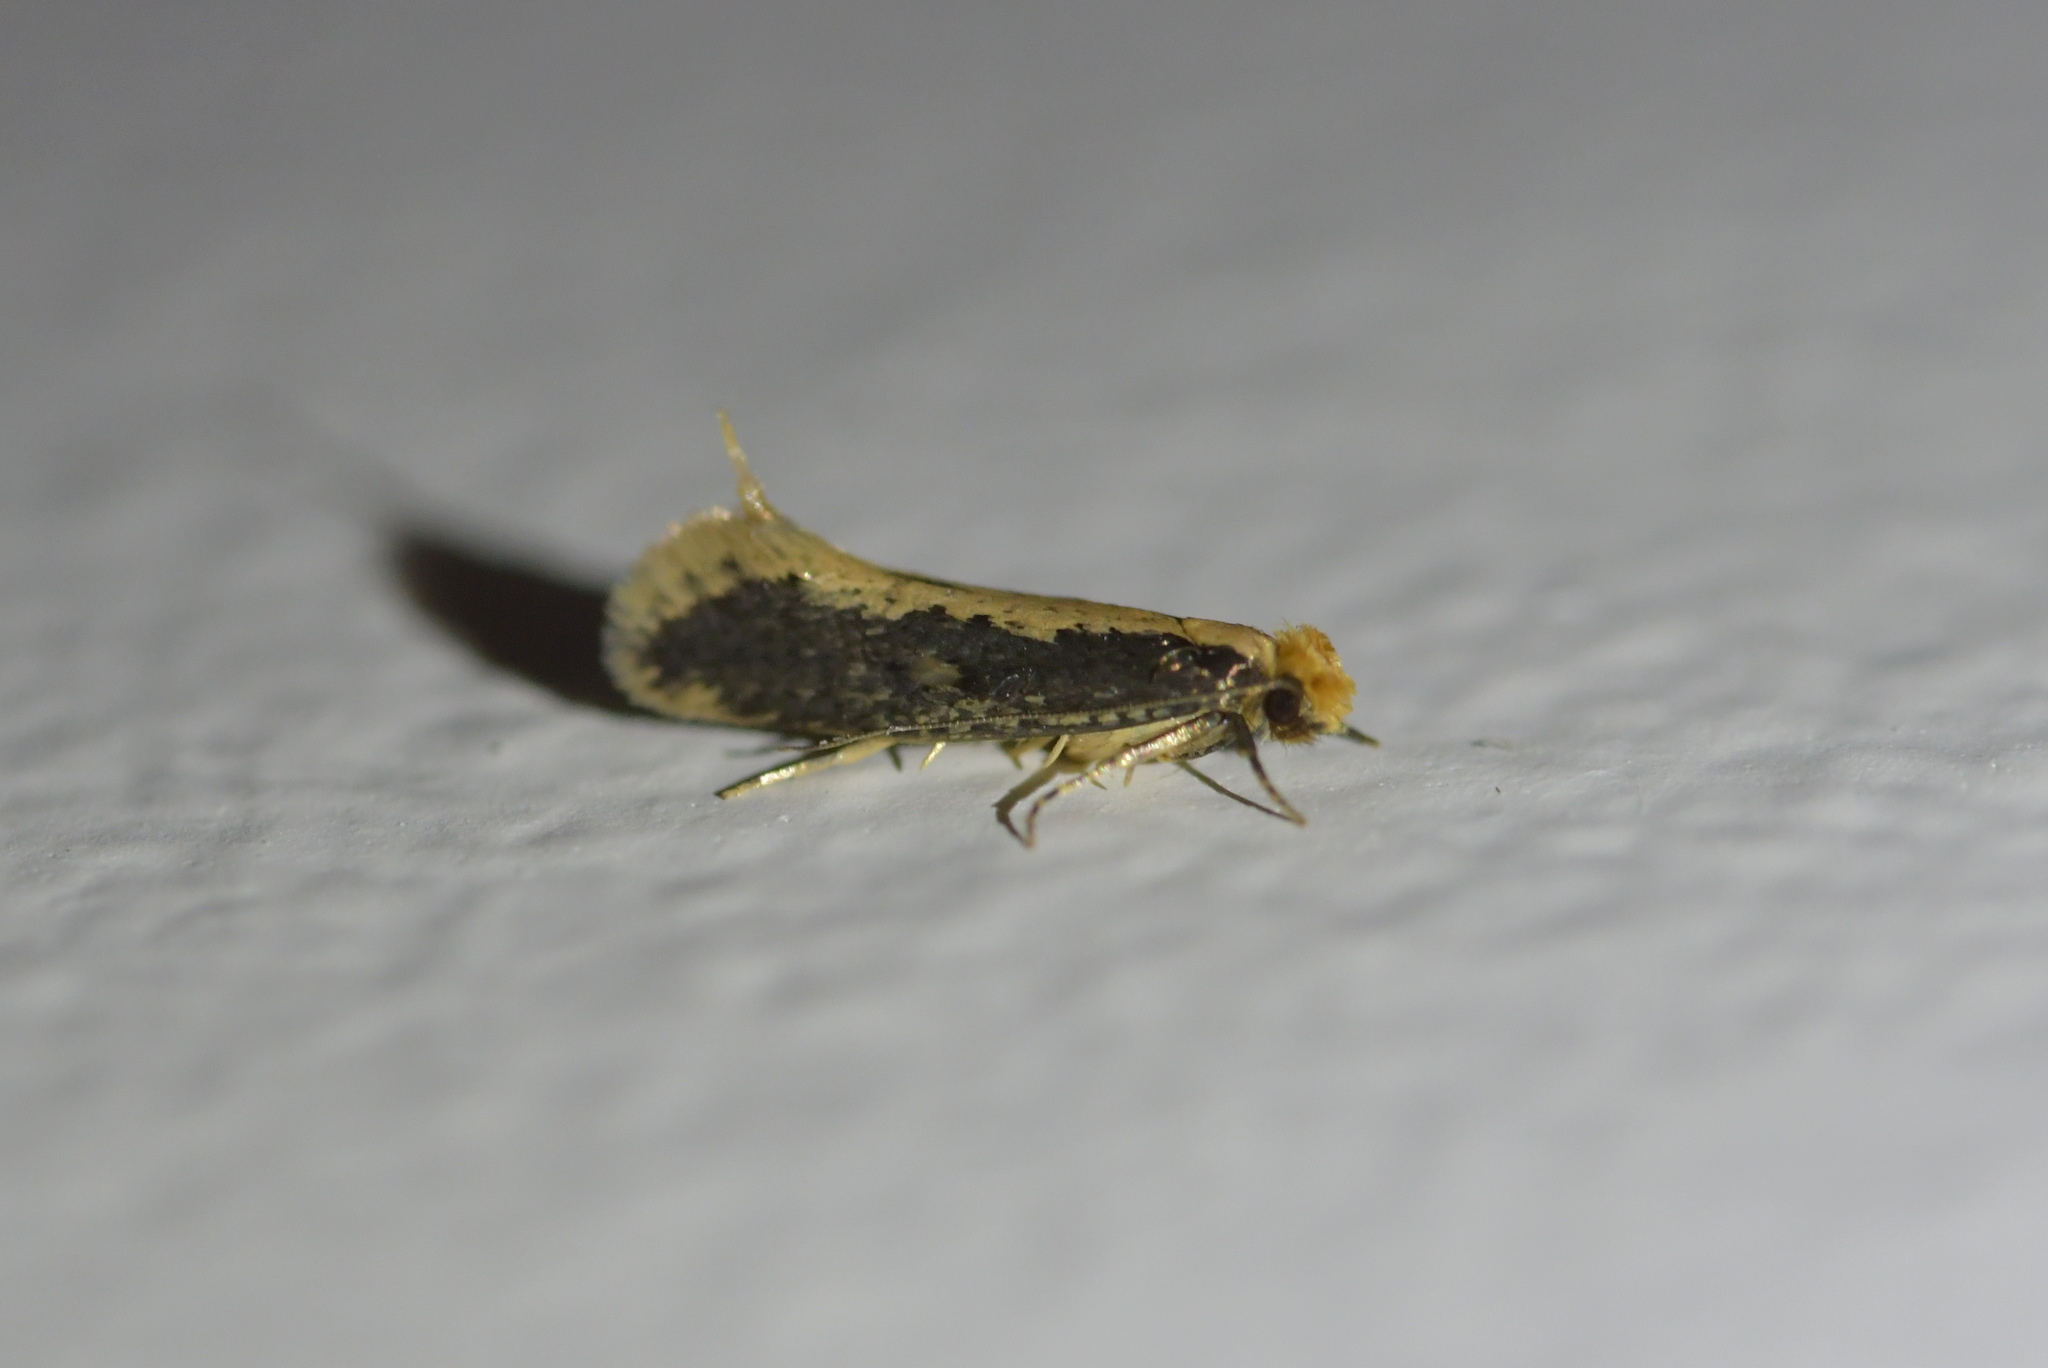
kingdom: Animalia
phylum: Arthropoda
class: Insecta
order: Lepidoptera
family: Tineidae
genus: Monopis
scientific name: Monopis crocicapitella
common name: Moth
